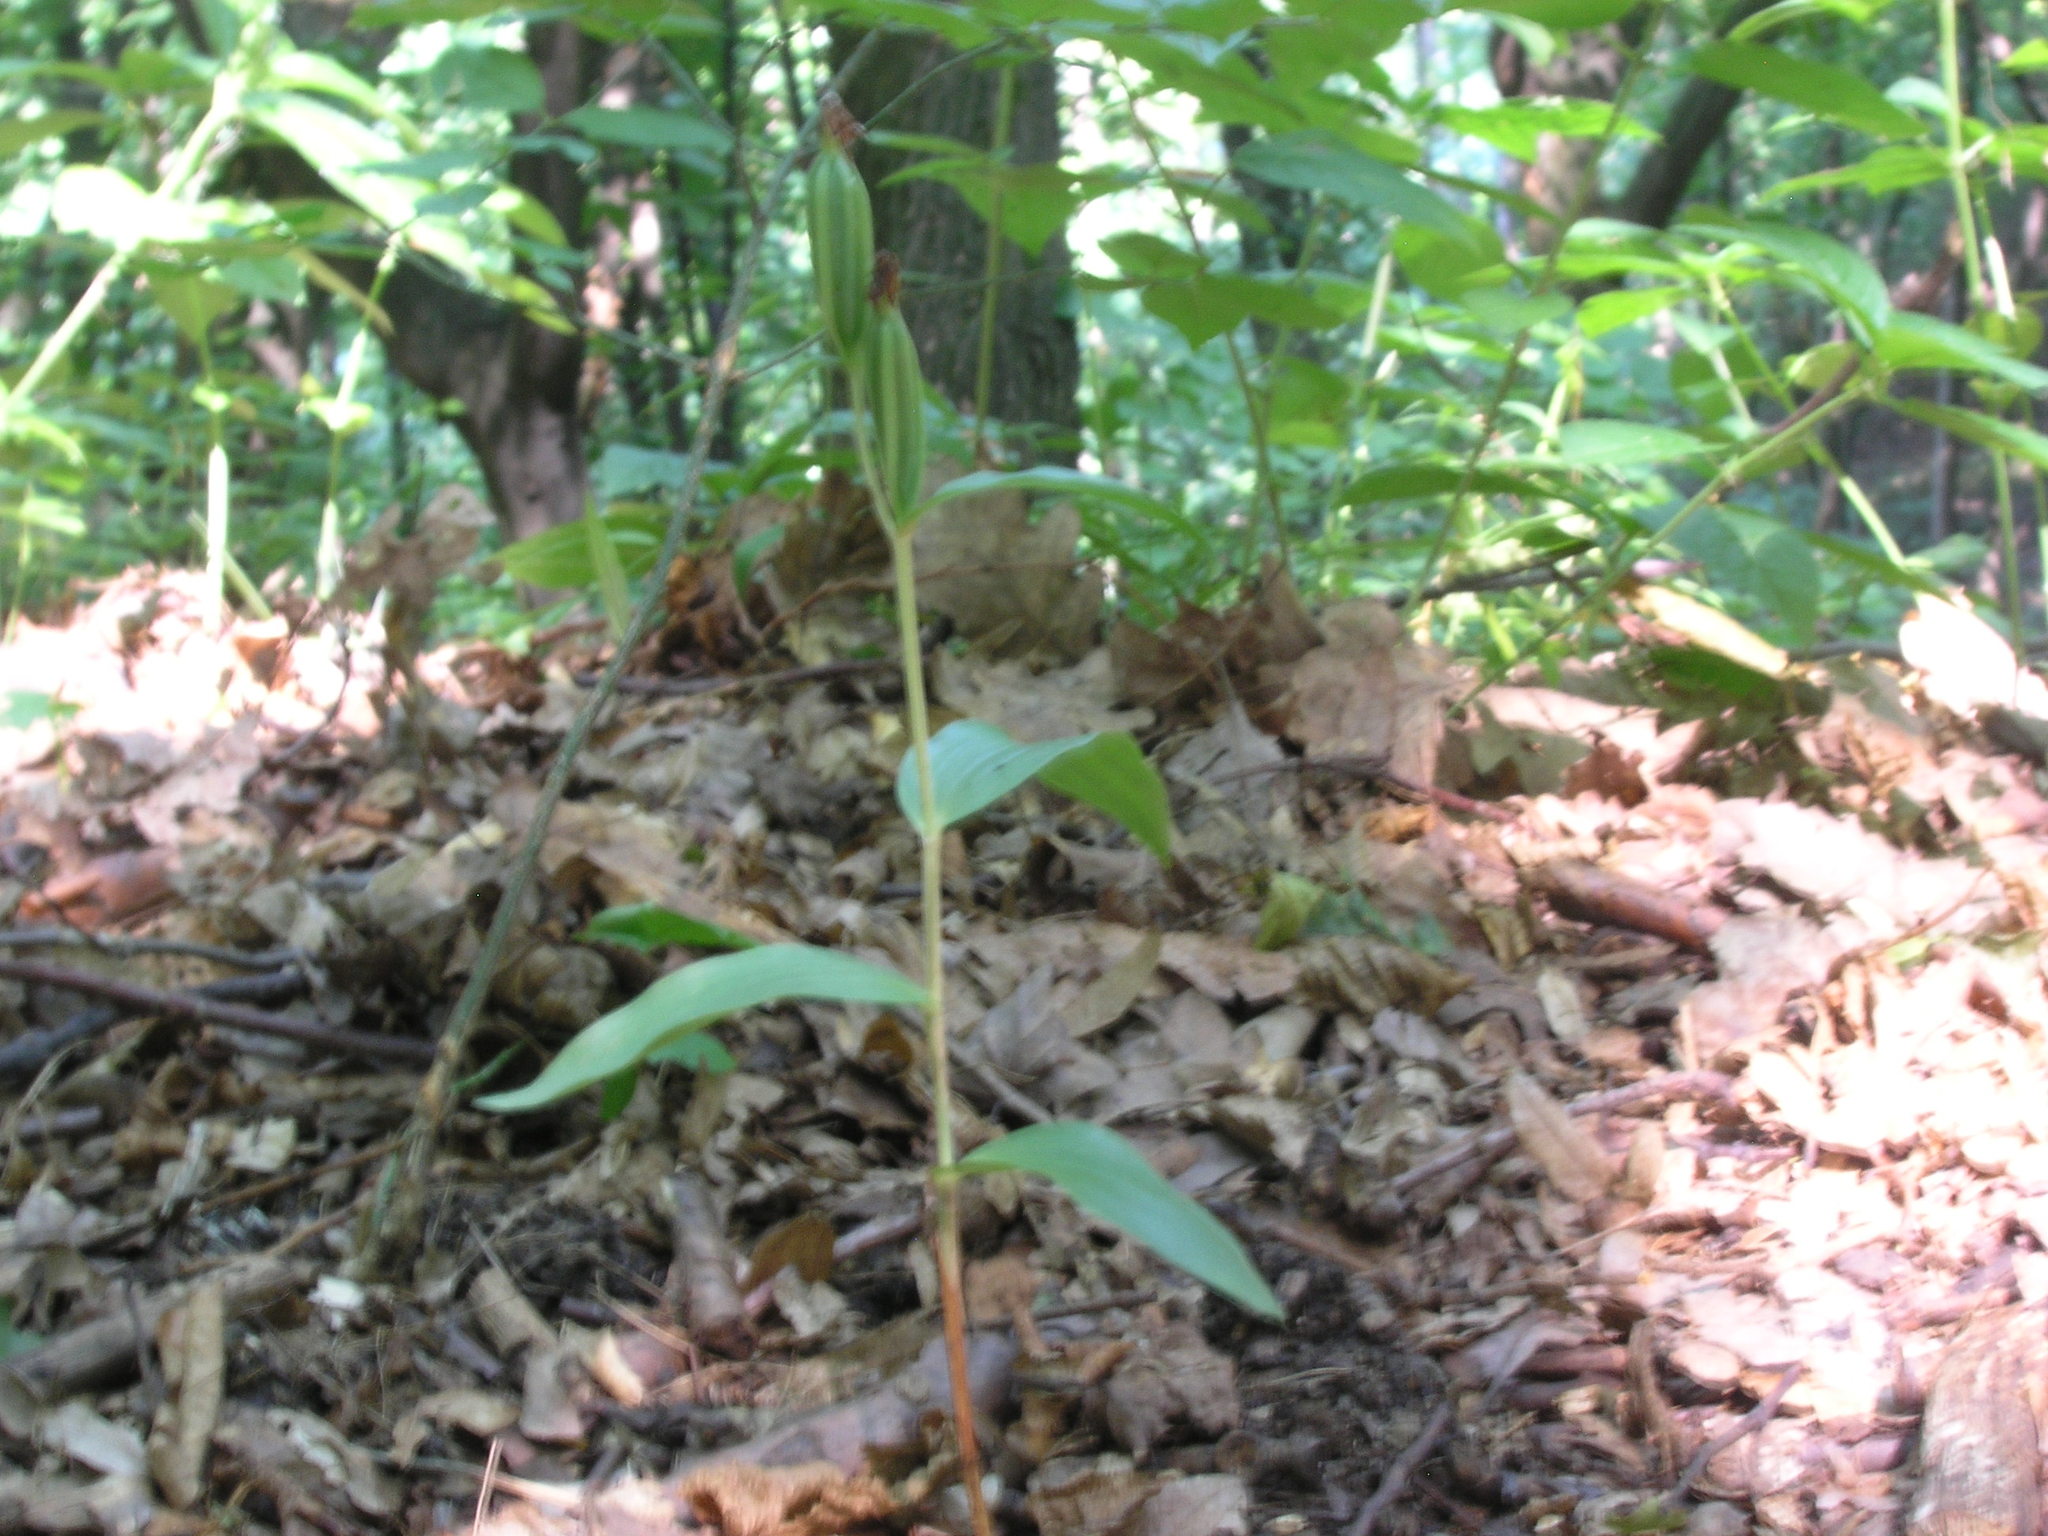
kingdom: Plantae
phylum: Tracheophyta
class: Liliopsida
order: Asparagales
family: Orchidaceae
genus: Cephalanthera
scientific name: Cephalanthera damasonium
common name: White helleborine
